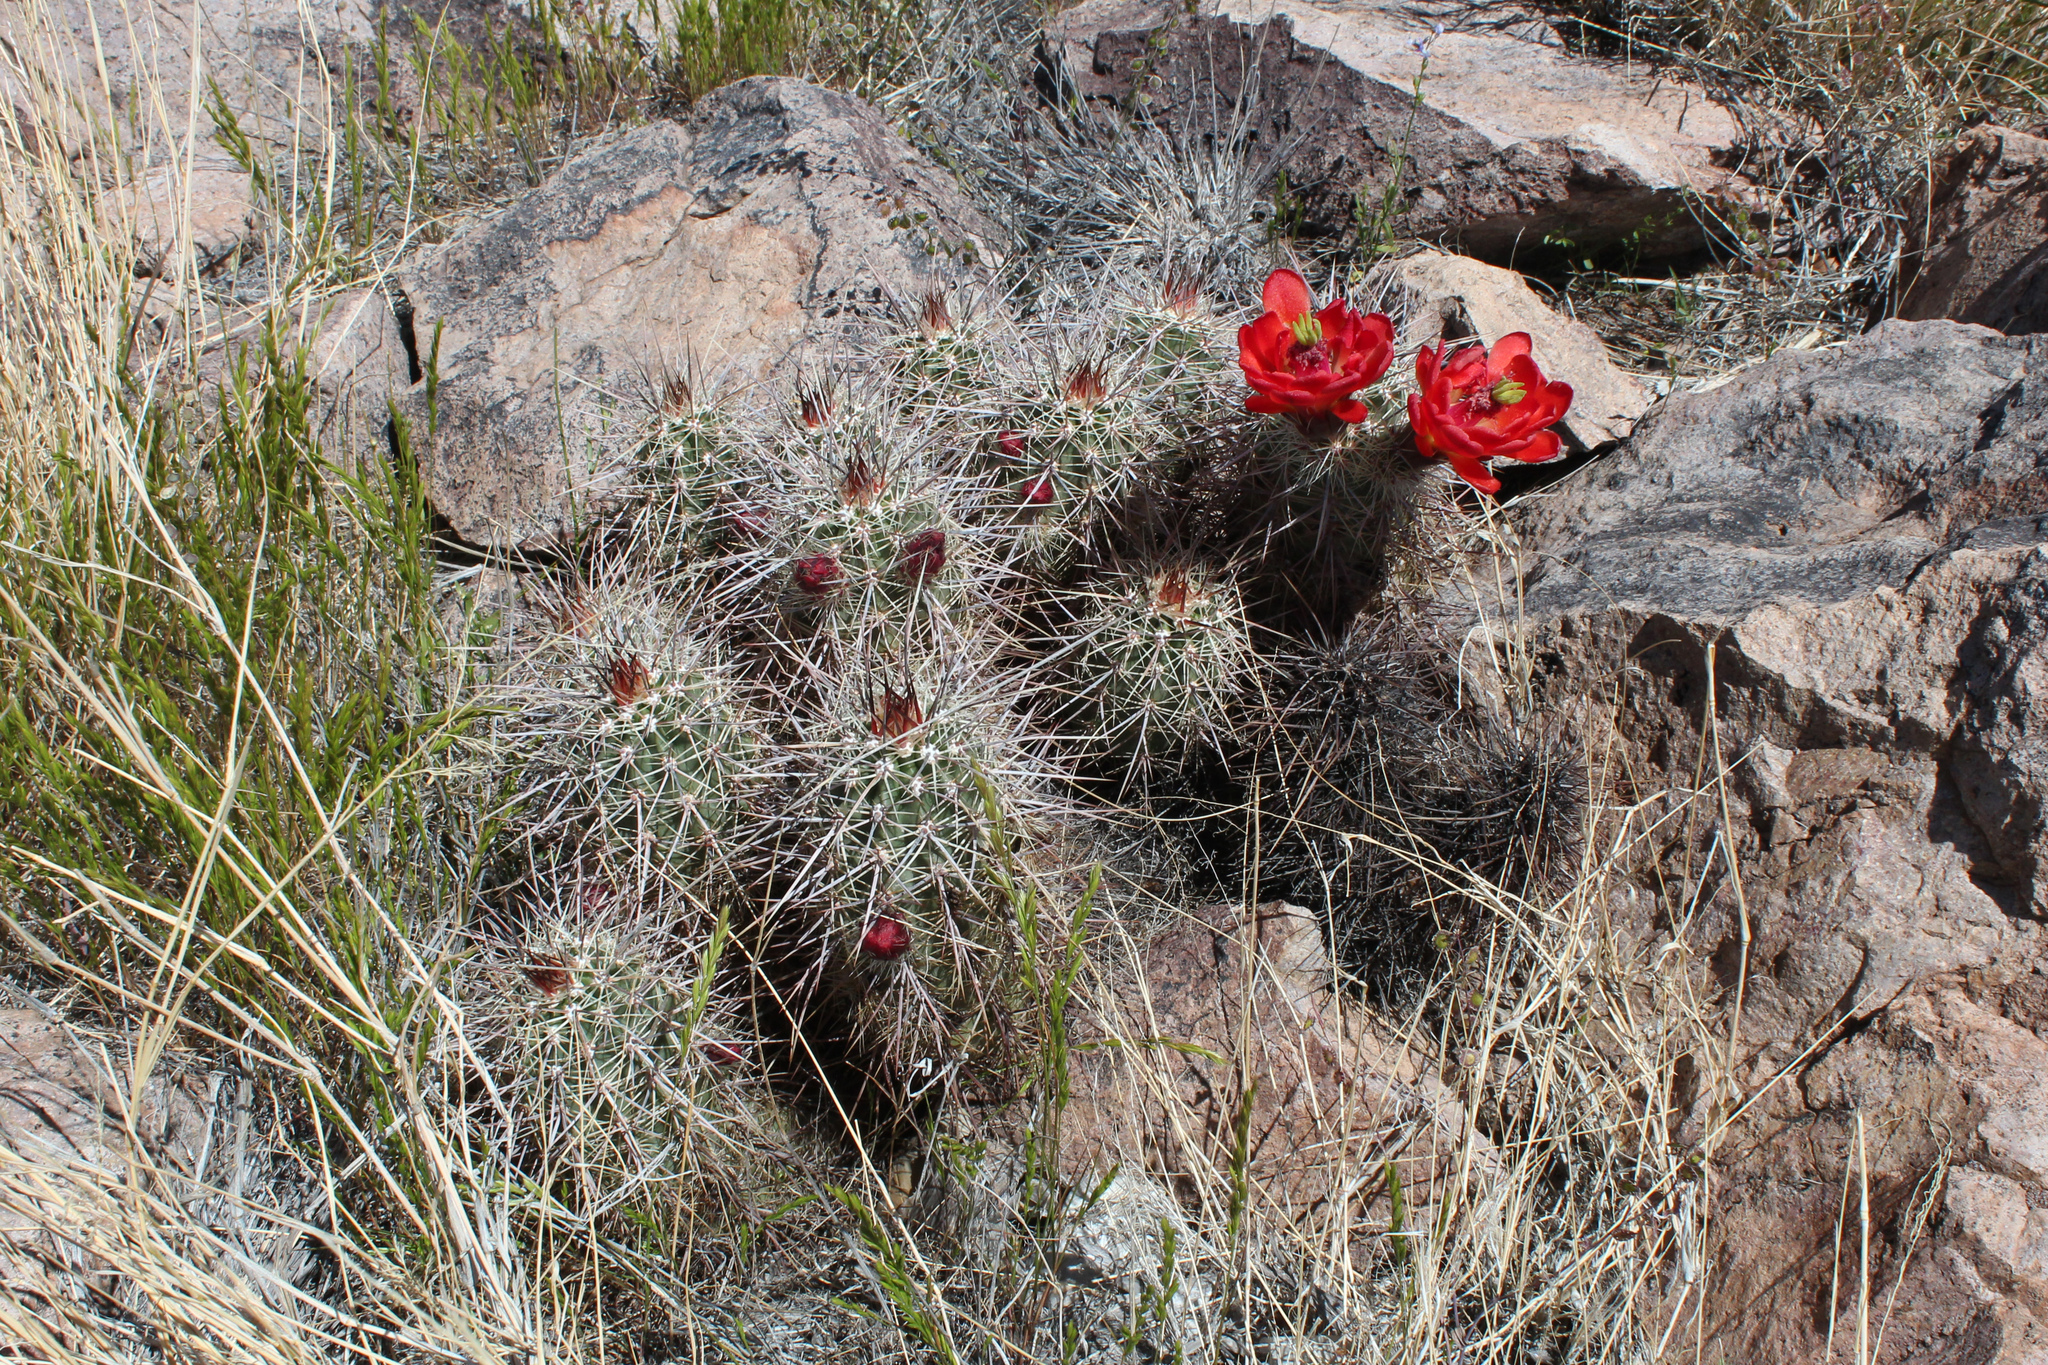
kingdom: Plantae
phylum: Tracheophyta
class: Magnoliopsida
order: Caryophyllales
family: Cactaceae
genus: Echinocereus
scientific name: Echinocereus arizonicus
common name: Arizona hedgehog cactus
